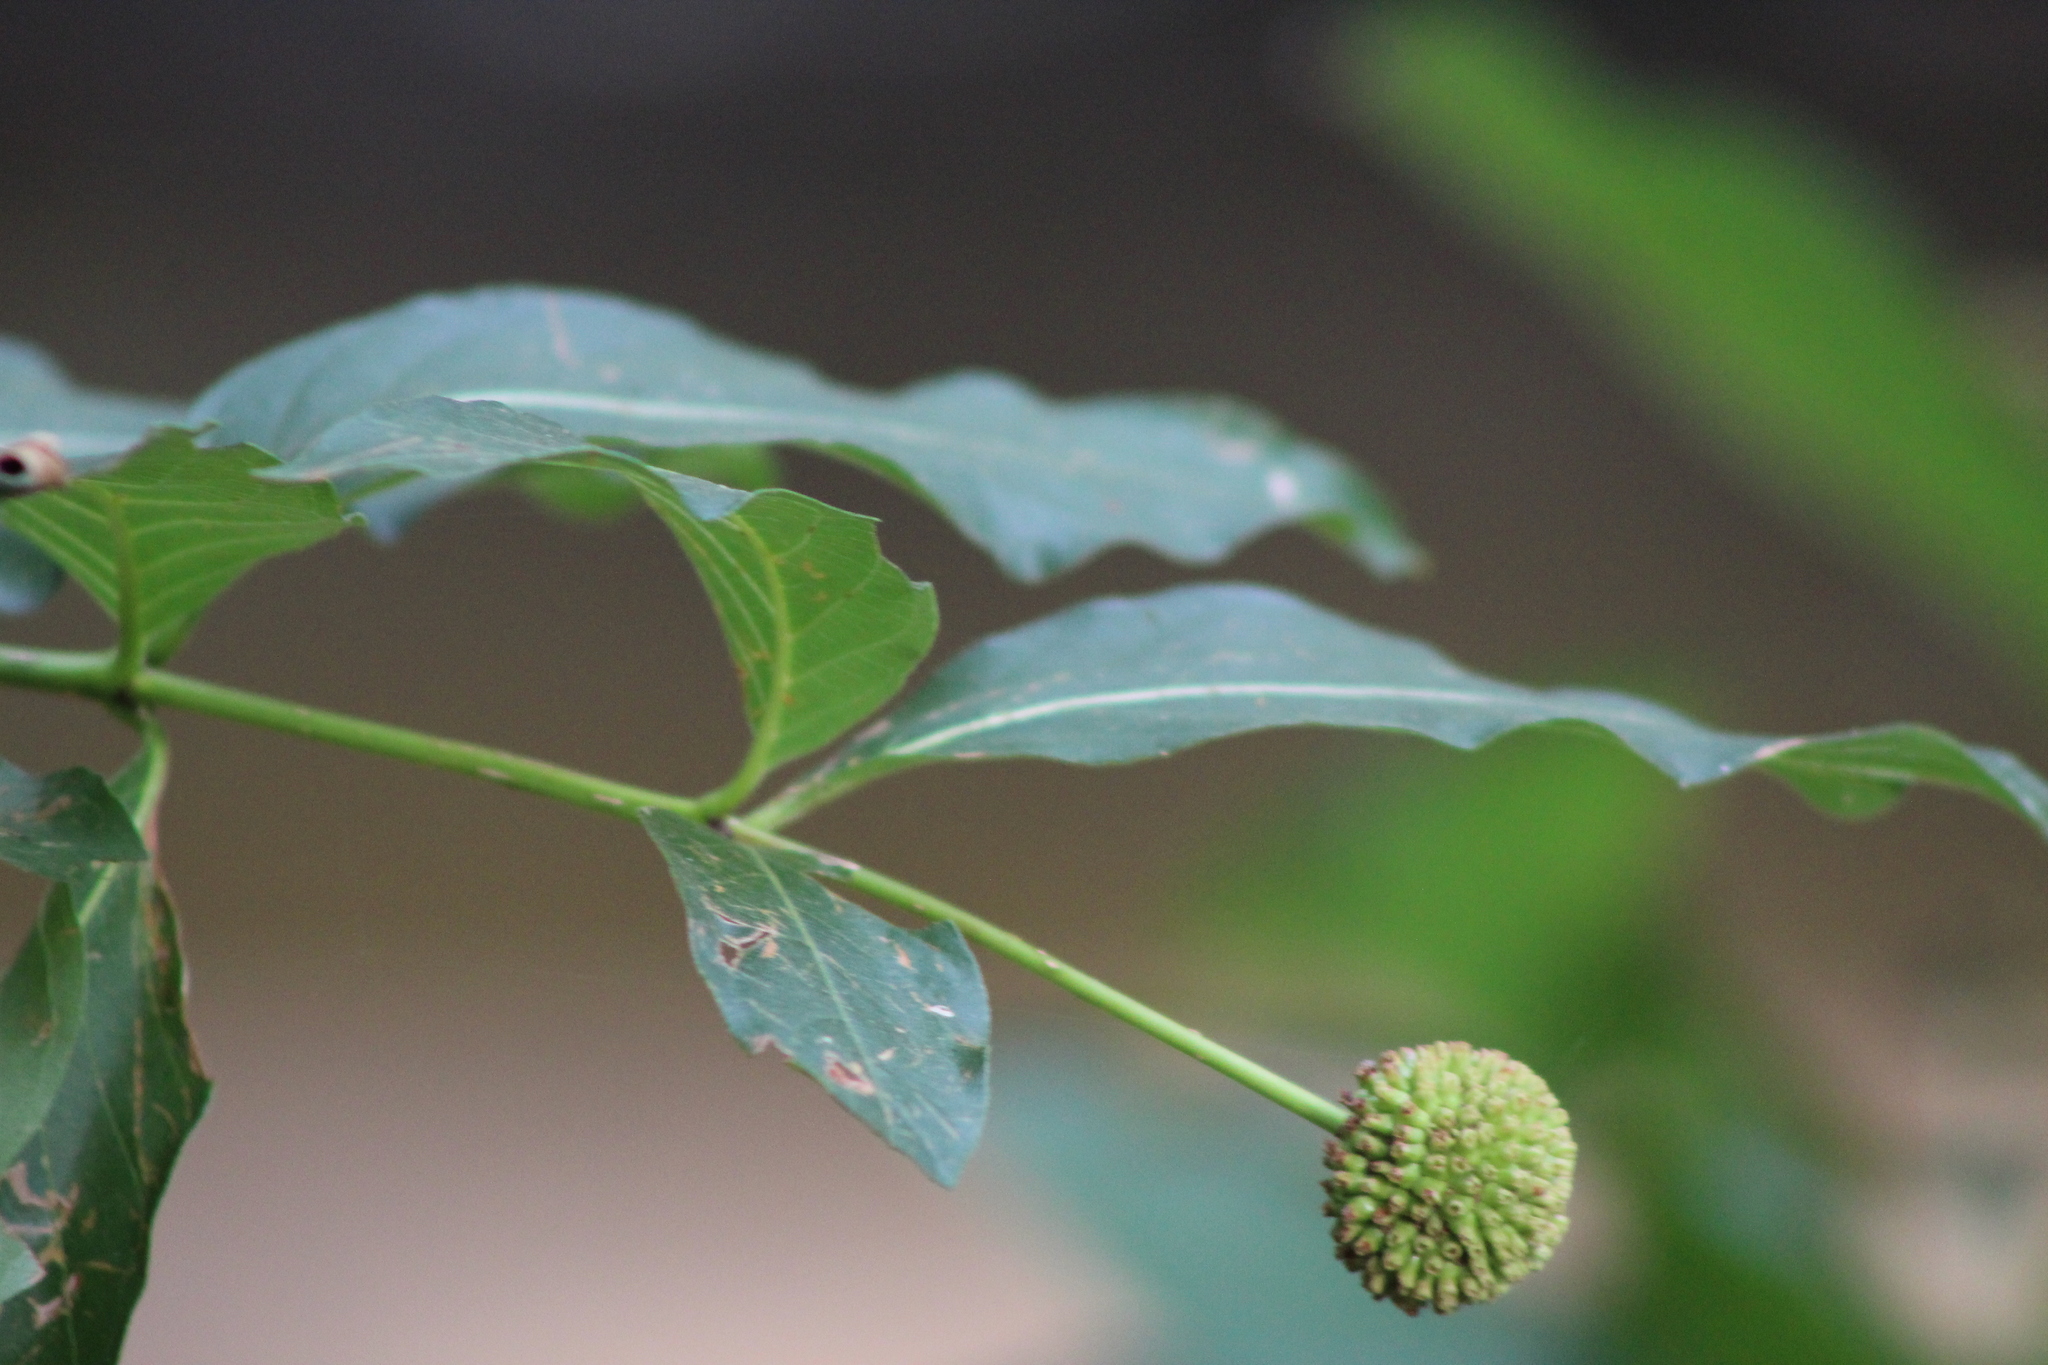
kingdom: Plantae
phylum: Tracheophyta
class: Magnoliopsida
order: Gentianales
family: Rubiaceae
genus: Cephalanthus
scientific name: Cephalanthus occidentalis
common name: Button-willow
